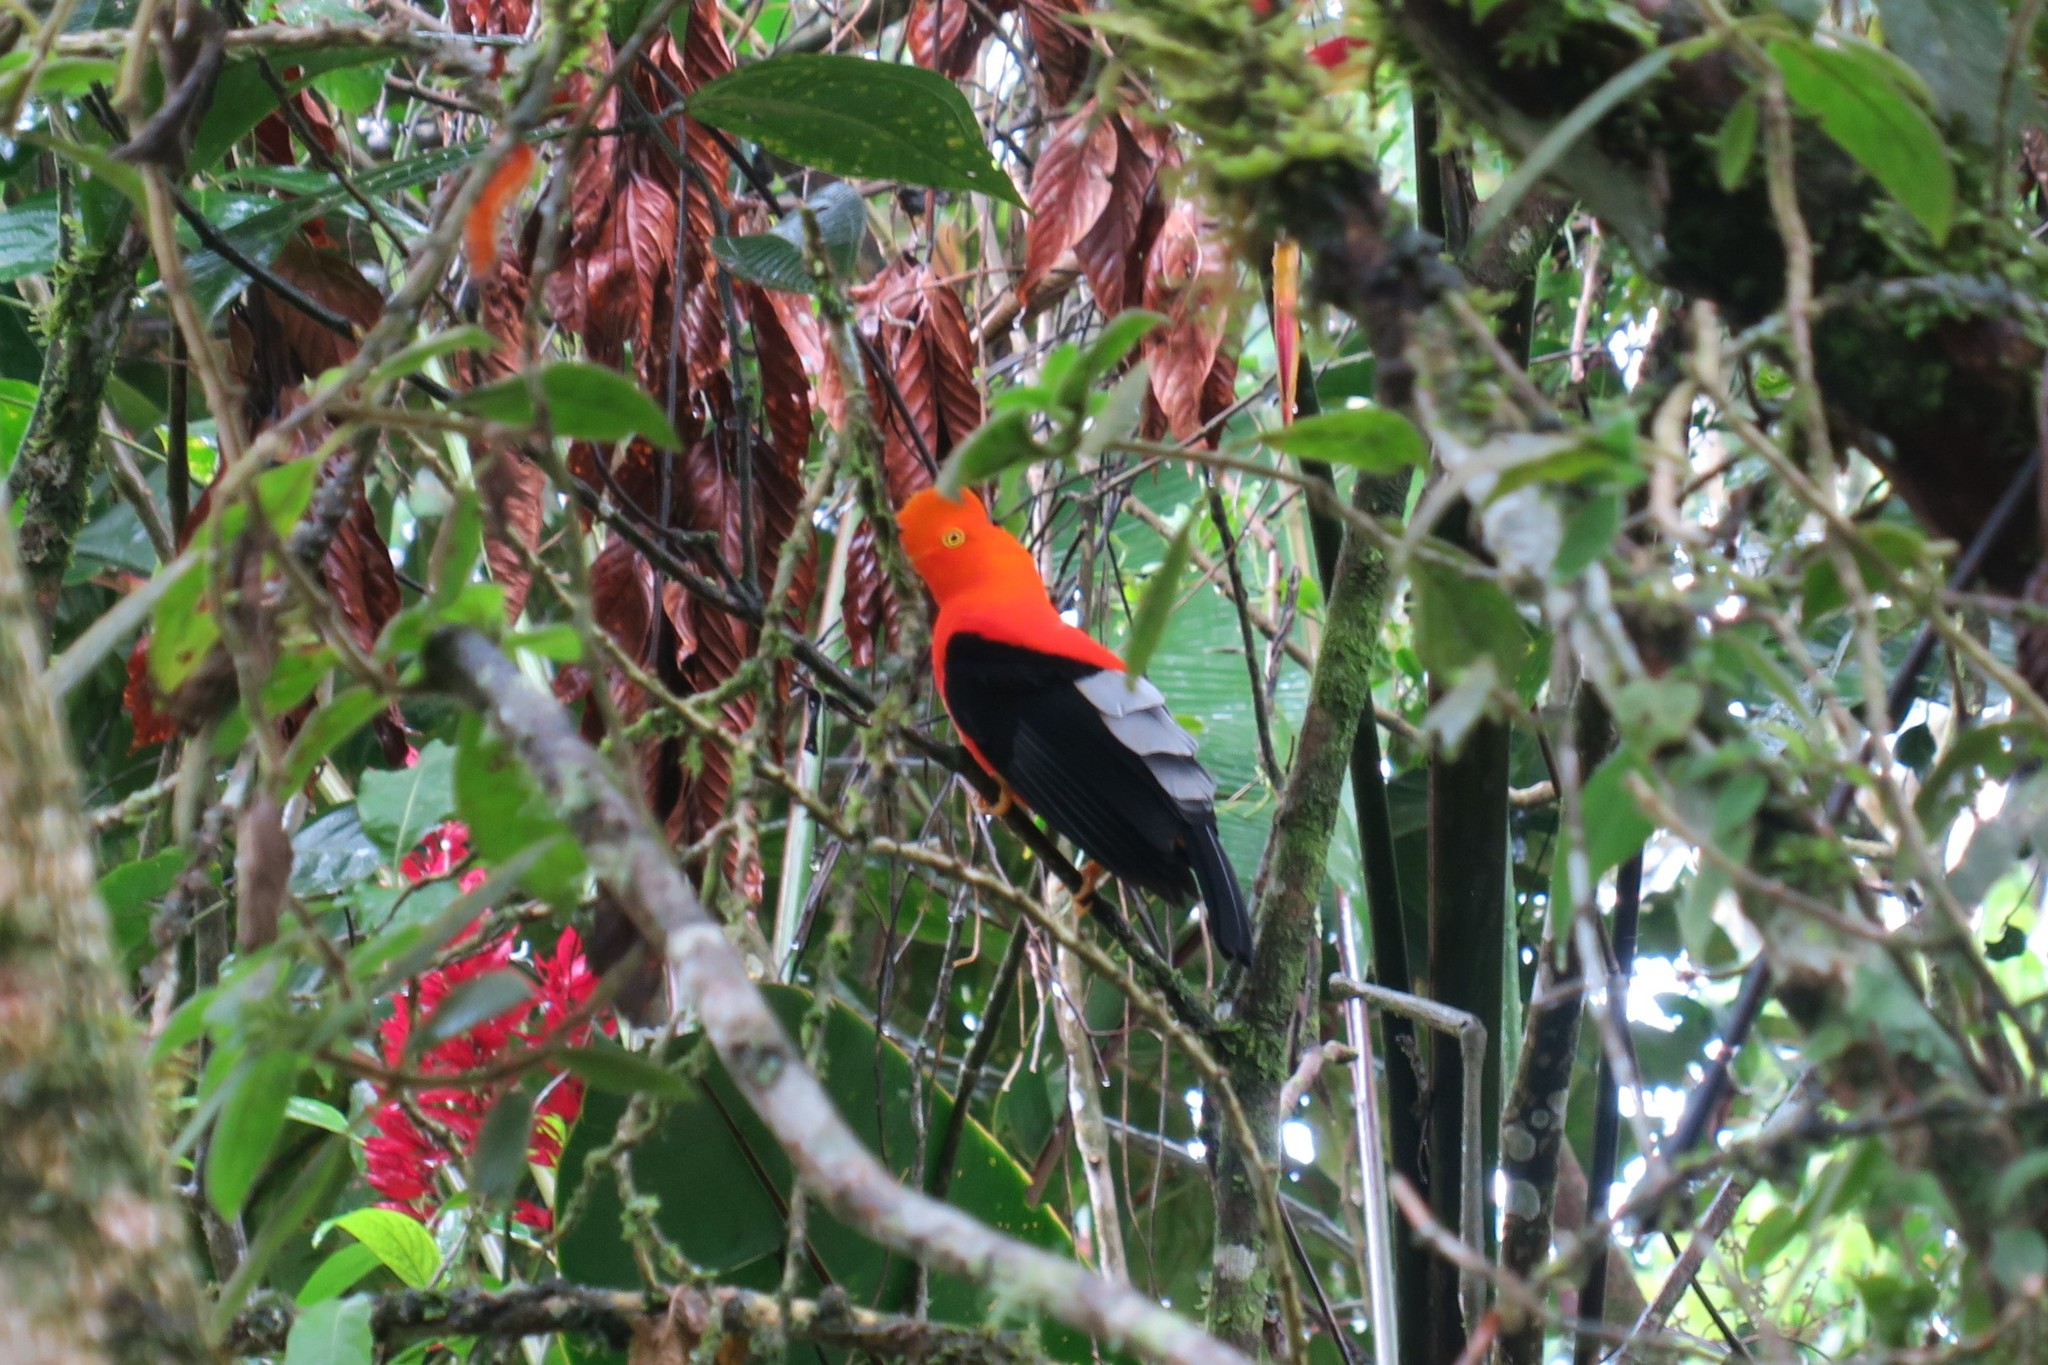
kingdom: Animalia
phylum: Chordata
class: Aves
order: Passeriformes
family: Cotingidae
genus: Rupicola
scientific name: Rupicola peruvianus
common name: Andean cock-of-the-rock
